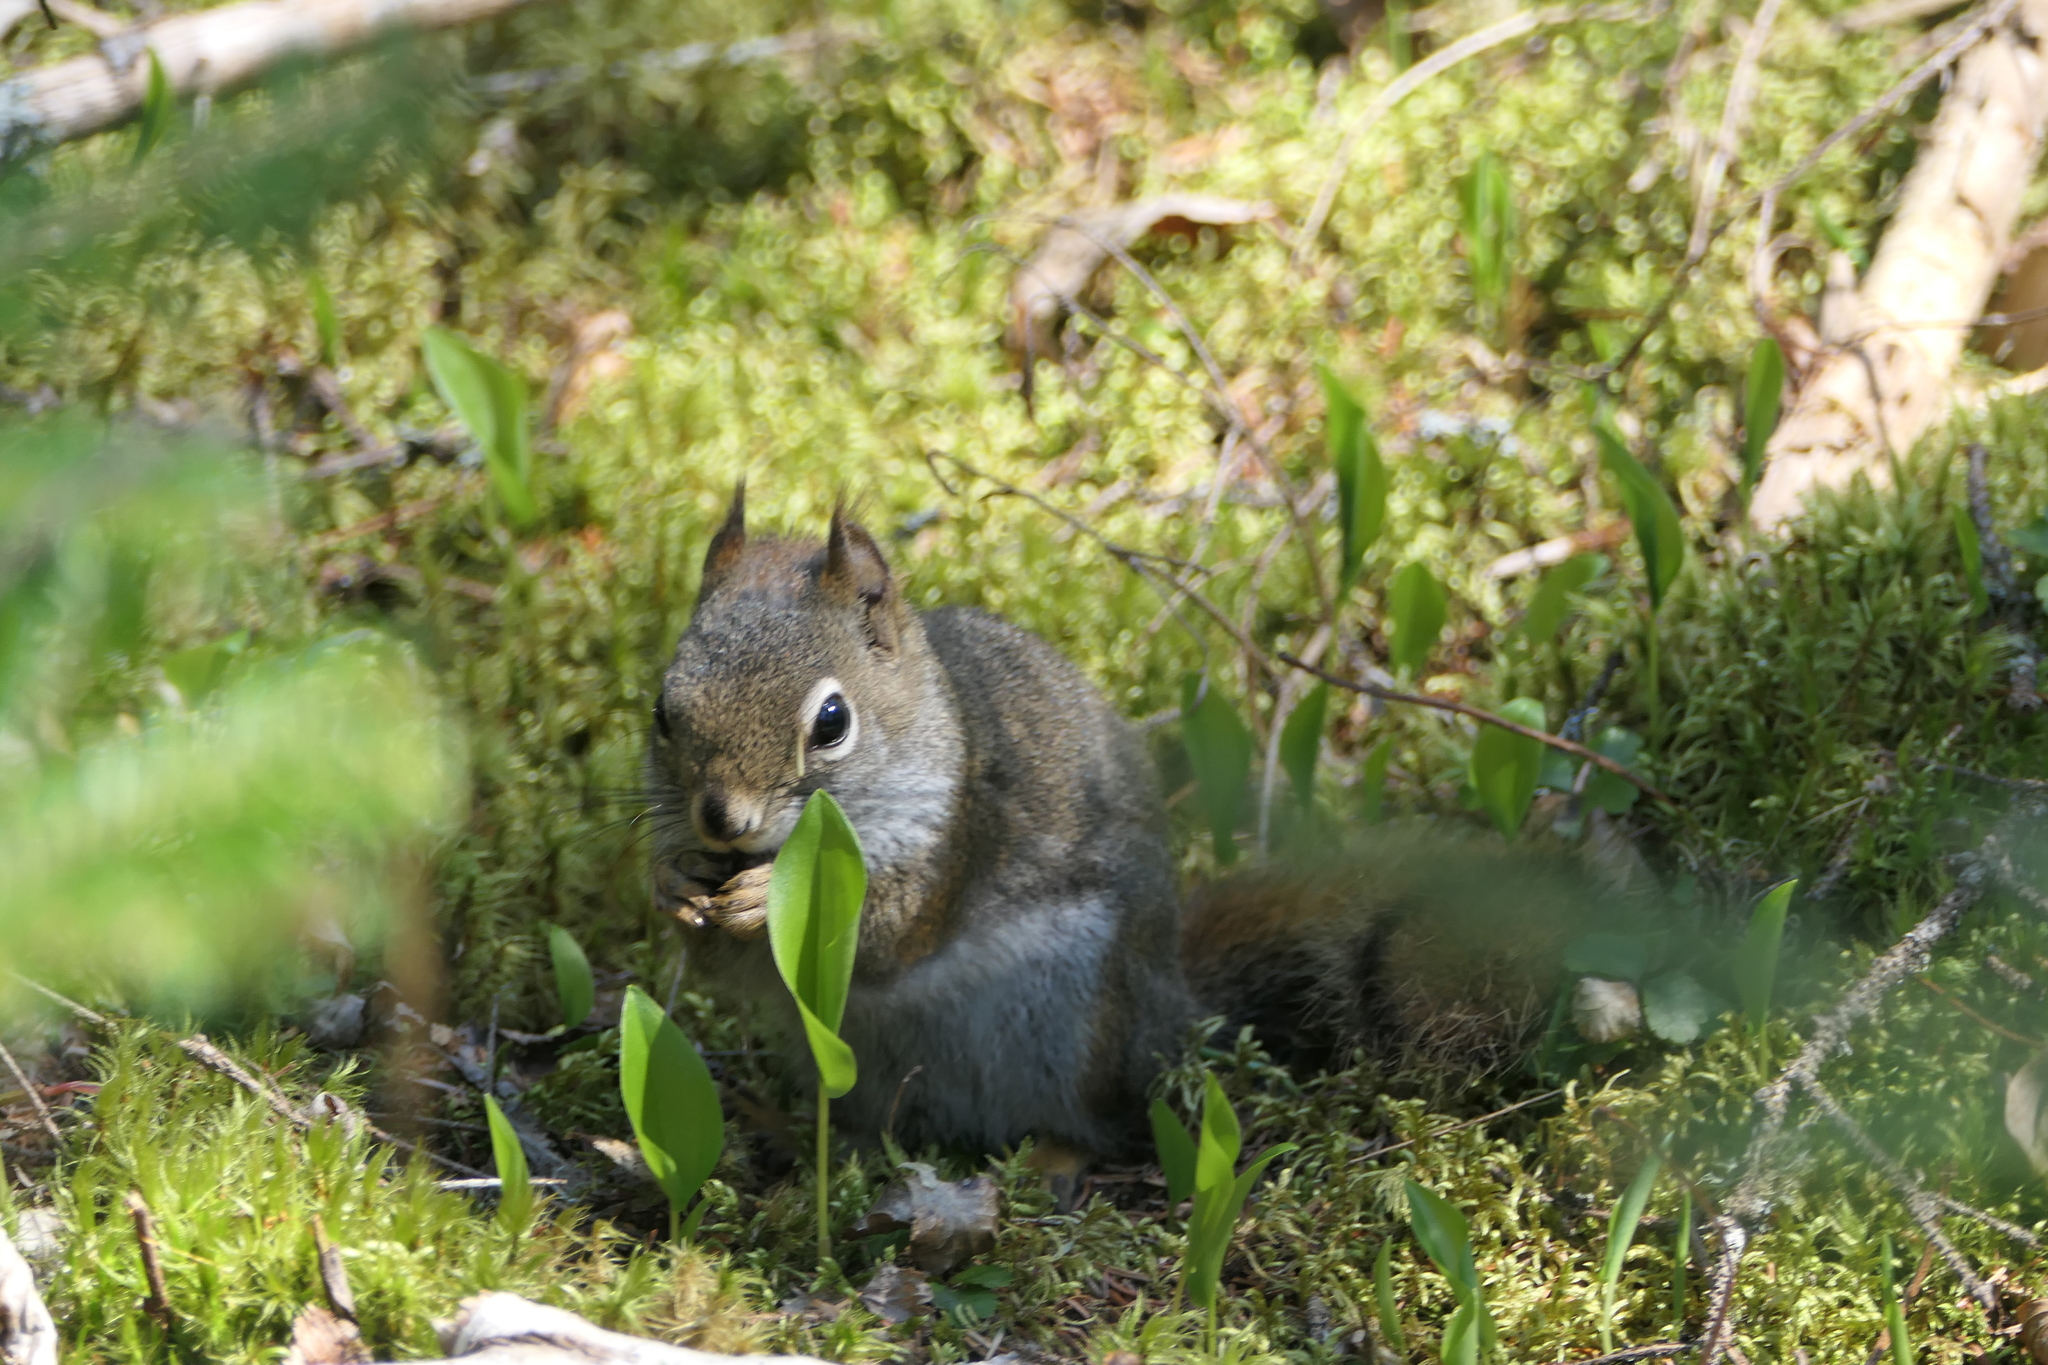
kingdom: Animalia
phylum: Chordata
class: Mammalia
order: Rodentia
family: Sciuridae
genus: Tamiasciurus
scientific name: Tamiasciurus hudsonicus
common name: Red squirrel
